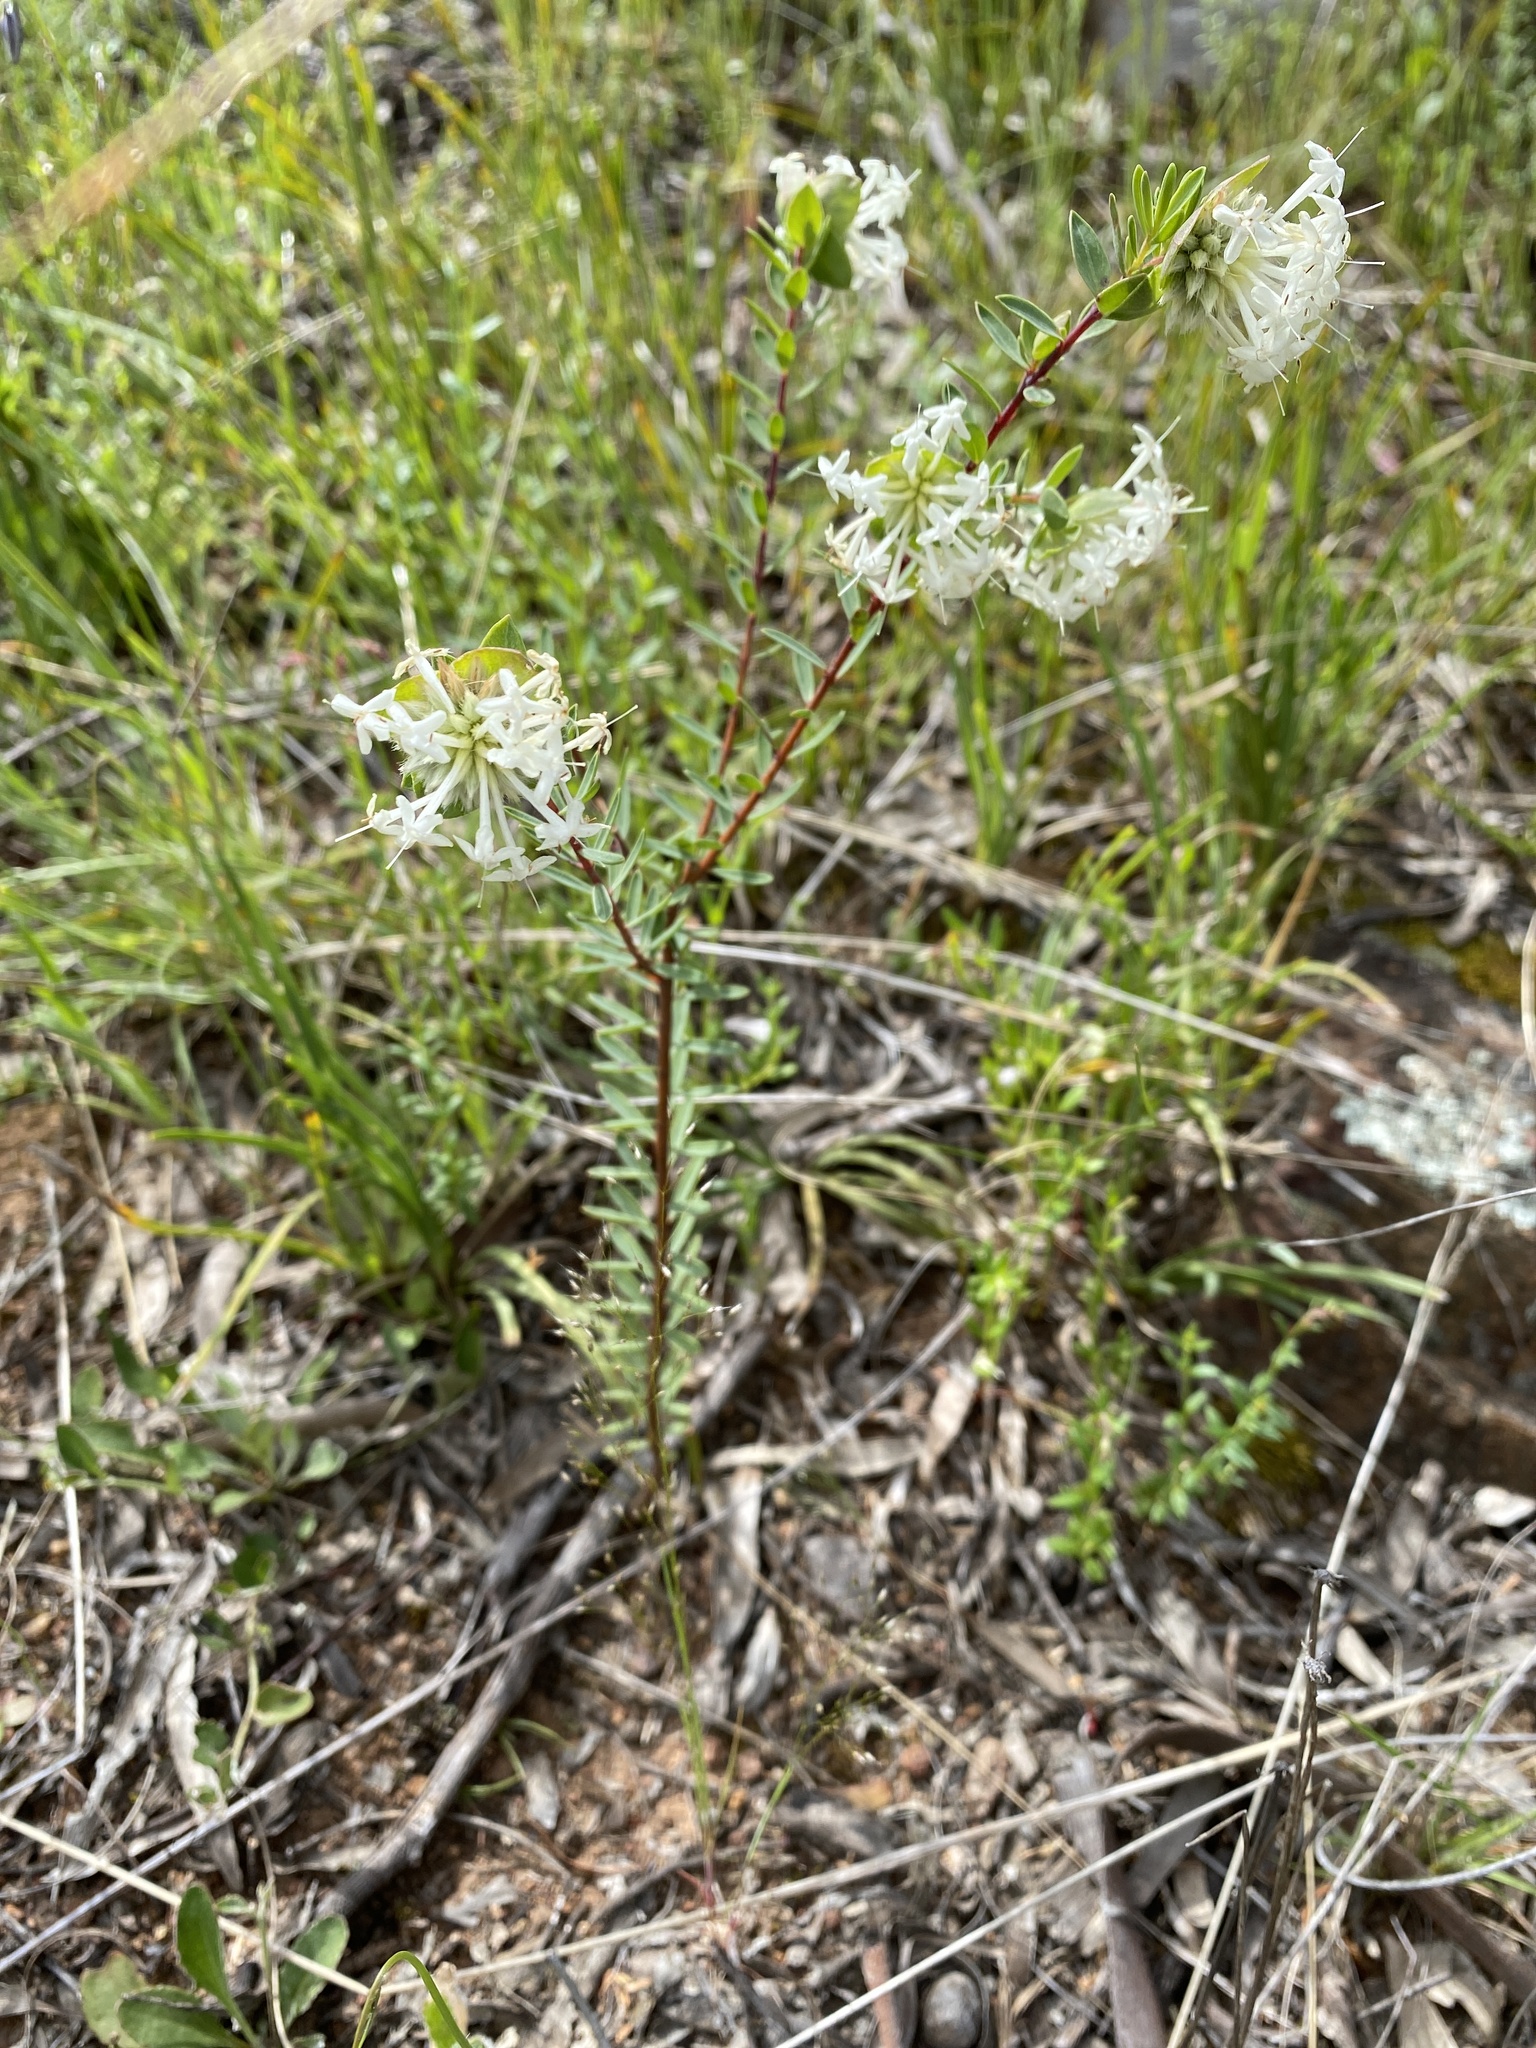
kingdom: Plantae
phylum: Tracheophyta
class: Magnoliopsida
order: Malvales
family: Thymelaeaceae
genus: Pimelea
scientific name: Pimelea linifolia
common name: Queen-of-the-bush
